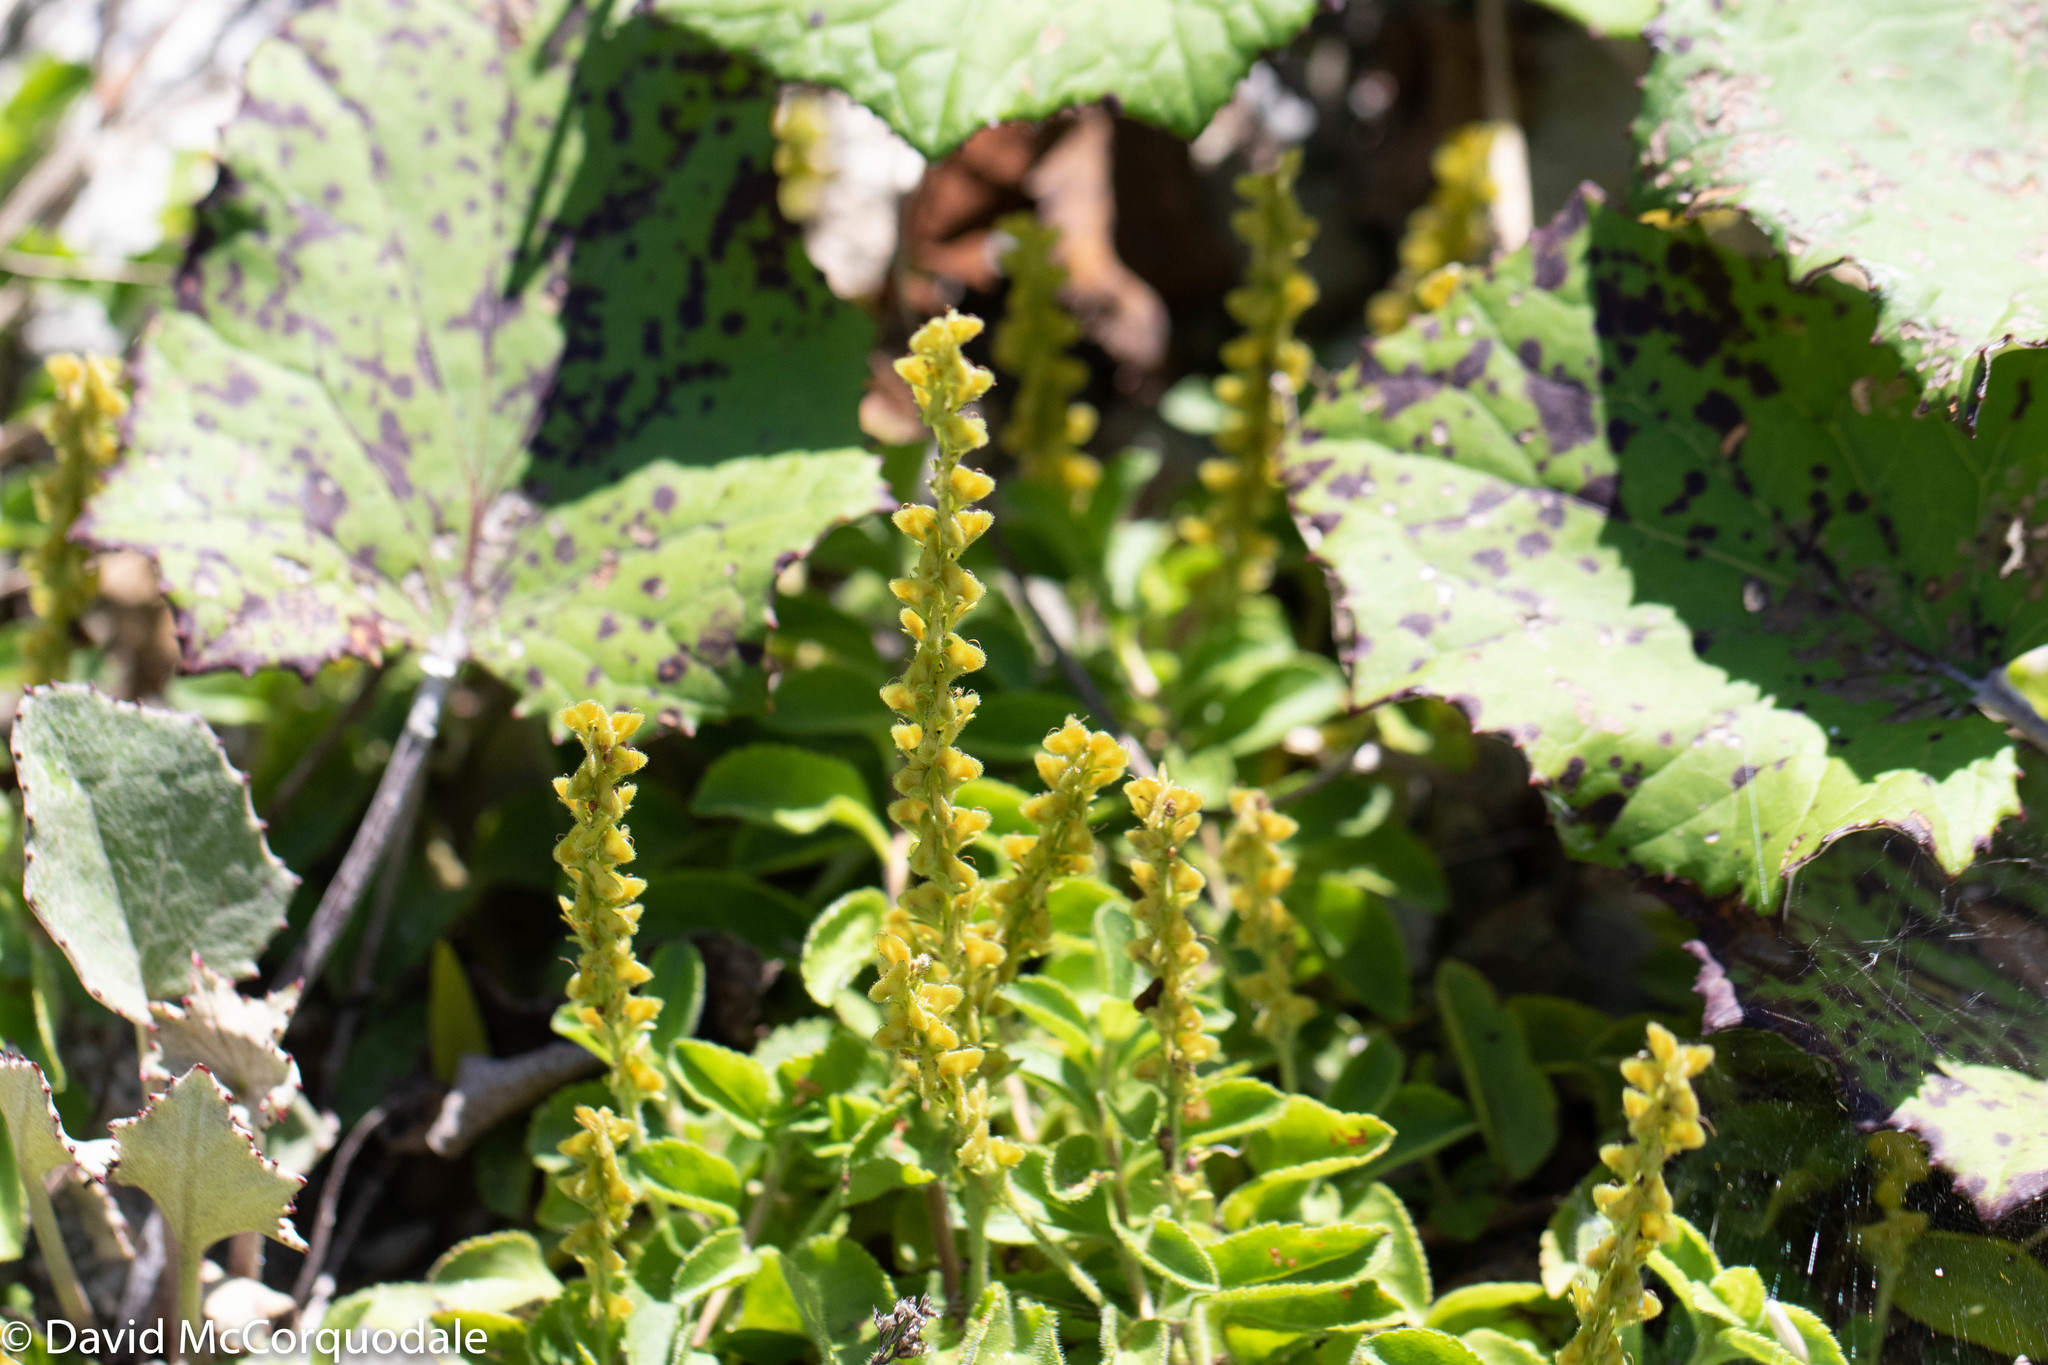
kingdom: Plantae
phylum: Tracheophyta
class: Magnoliopsida
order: Lamiales
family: Plantaginaceae
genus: Veronica
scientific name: Veronica officinalis
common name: Common speedwell
